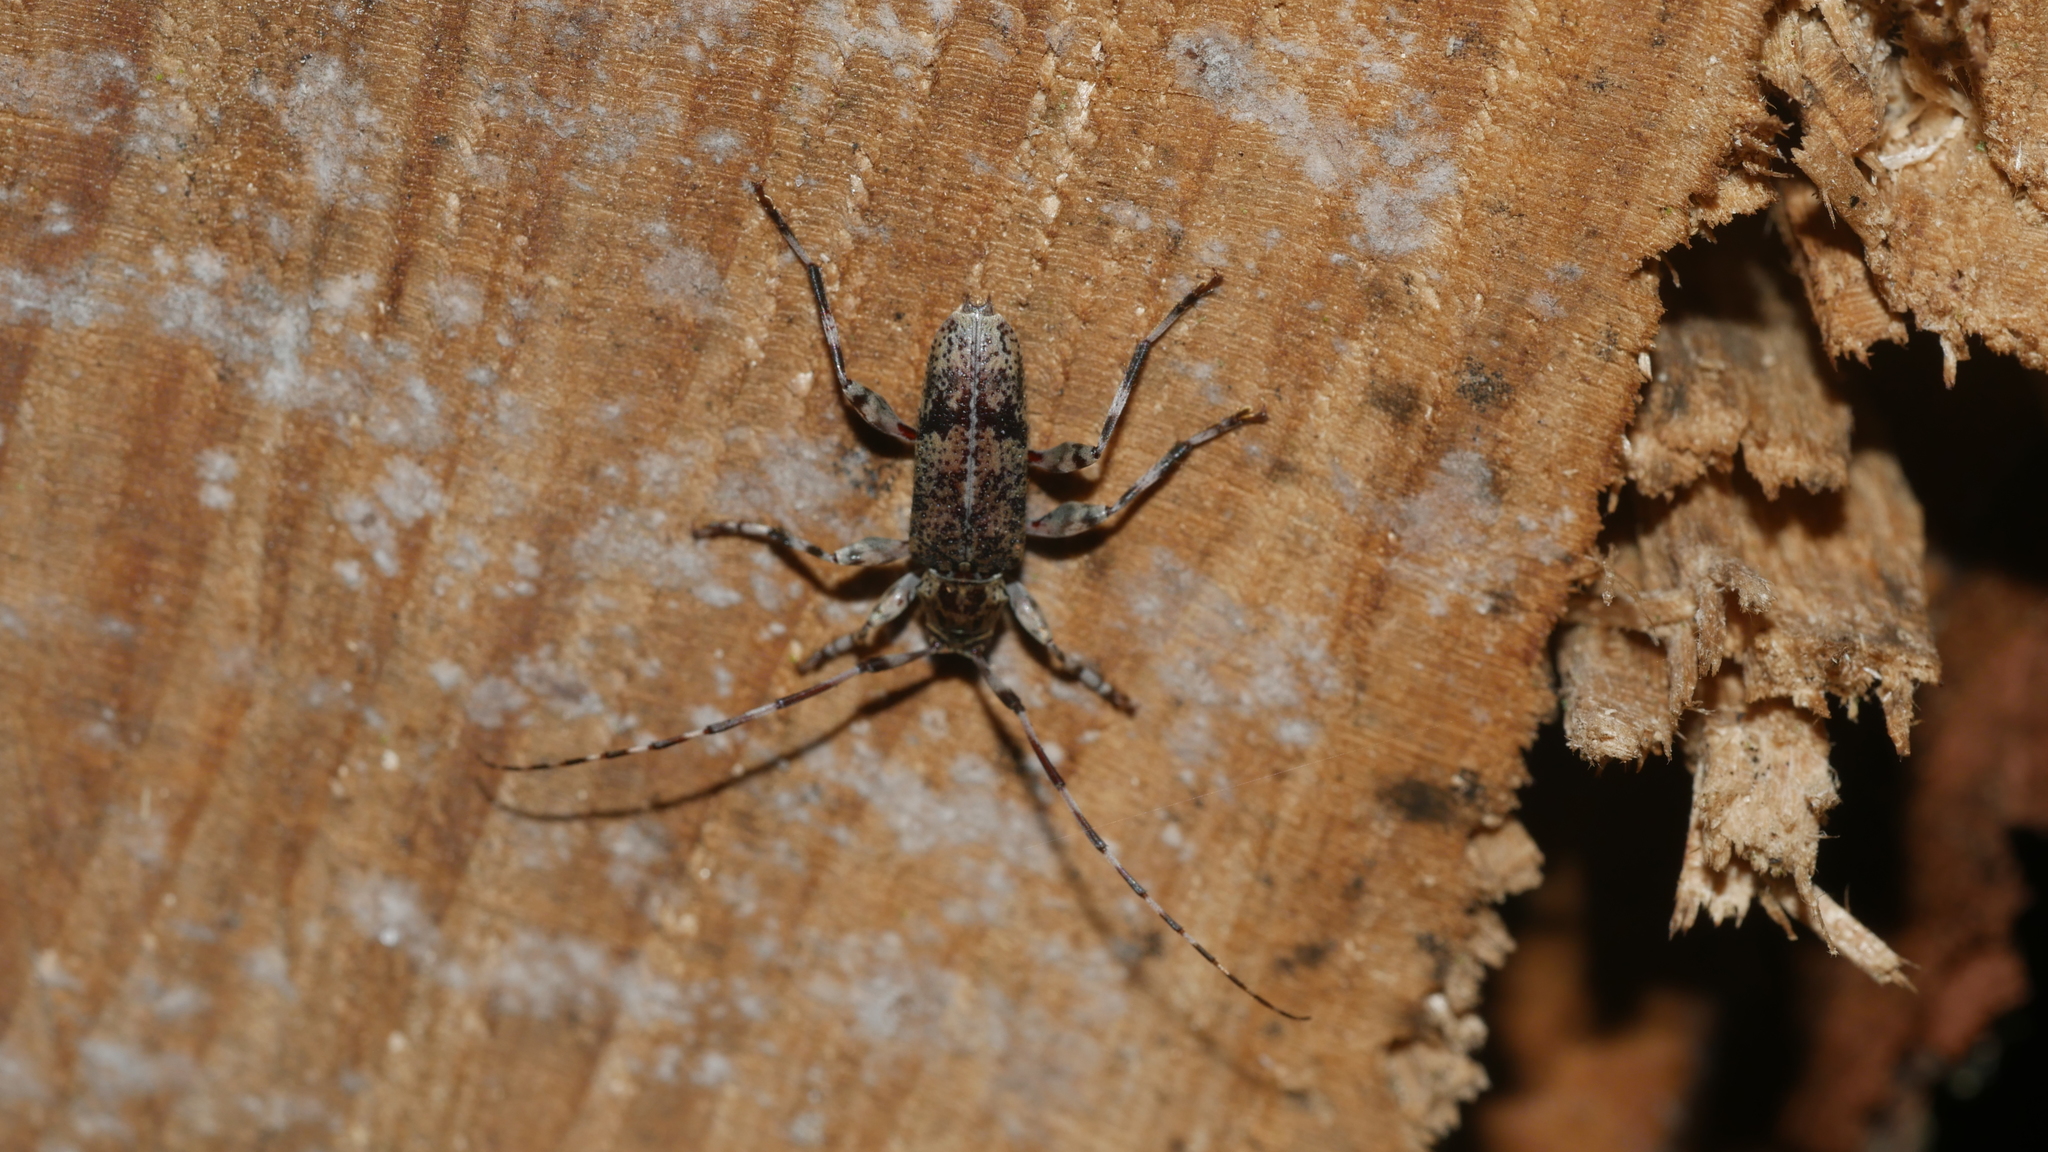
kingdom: Animalia
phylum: Arthropoda
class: Insecta
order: Coleoptera
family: Cerambycidae
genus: Graphisurus
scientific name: Graphisurus fasciatus
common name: Banded graphisurus
